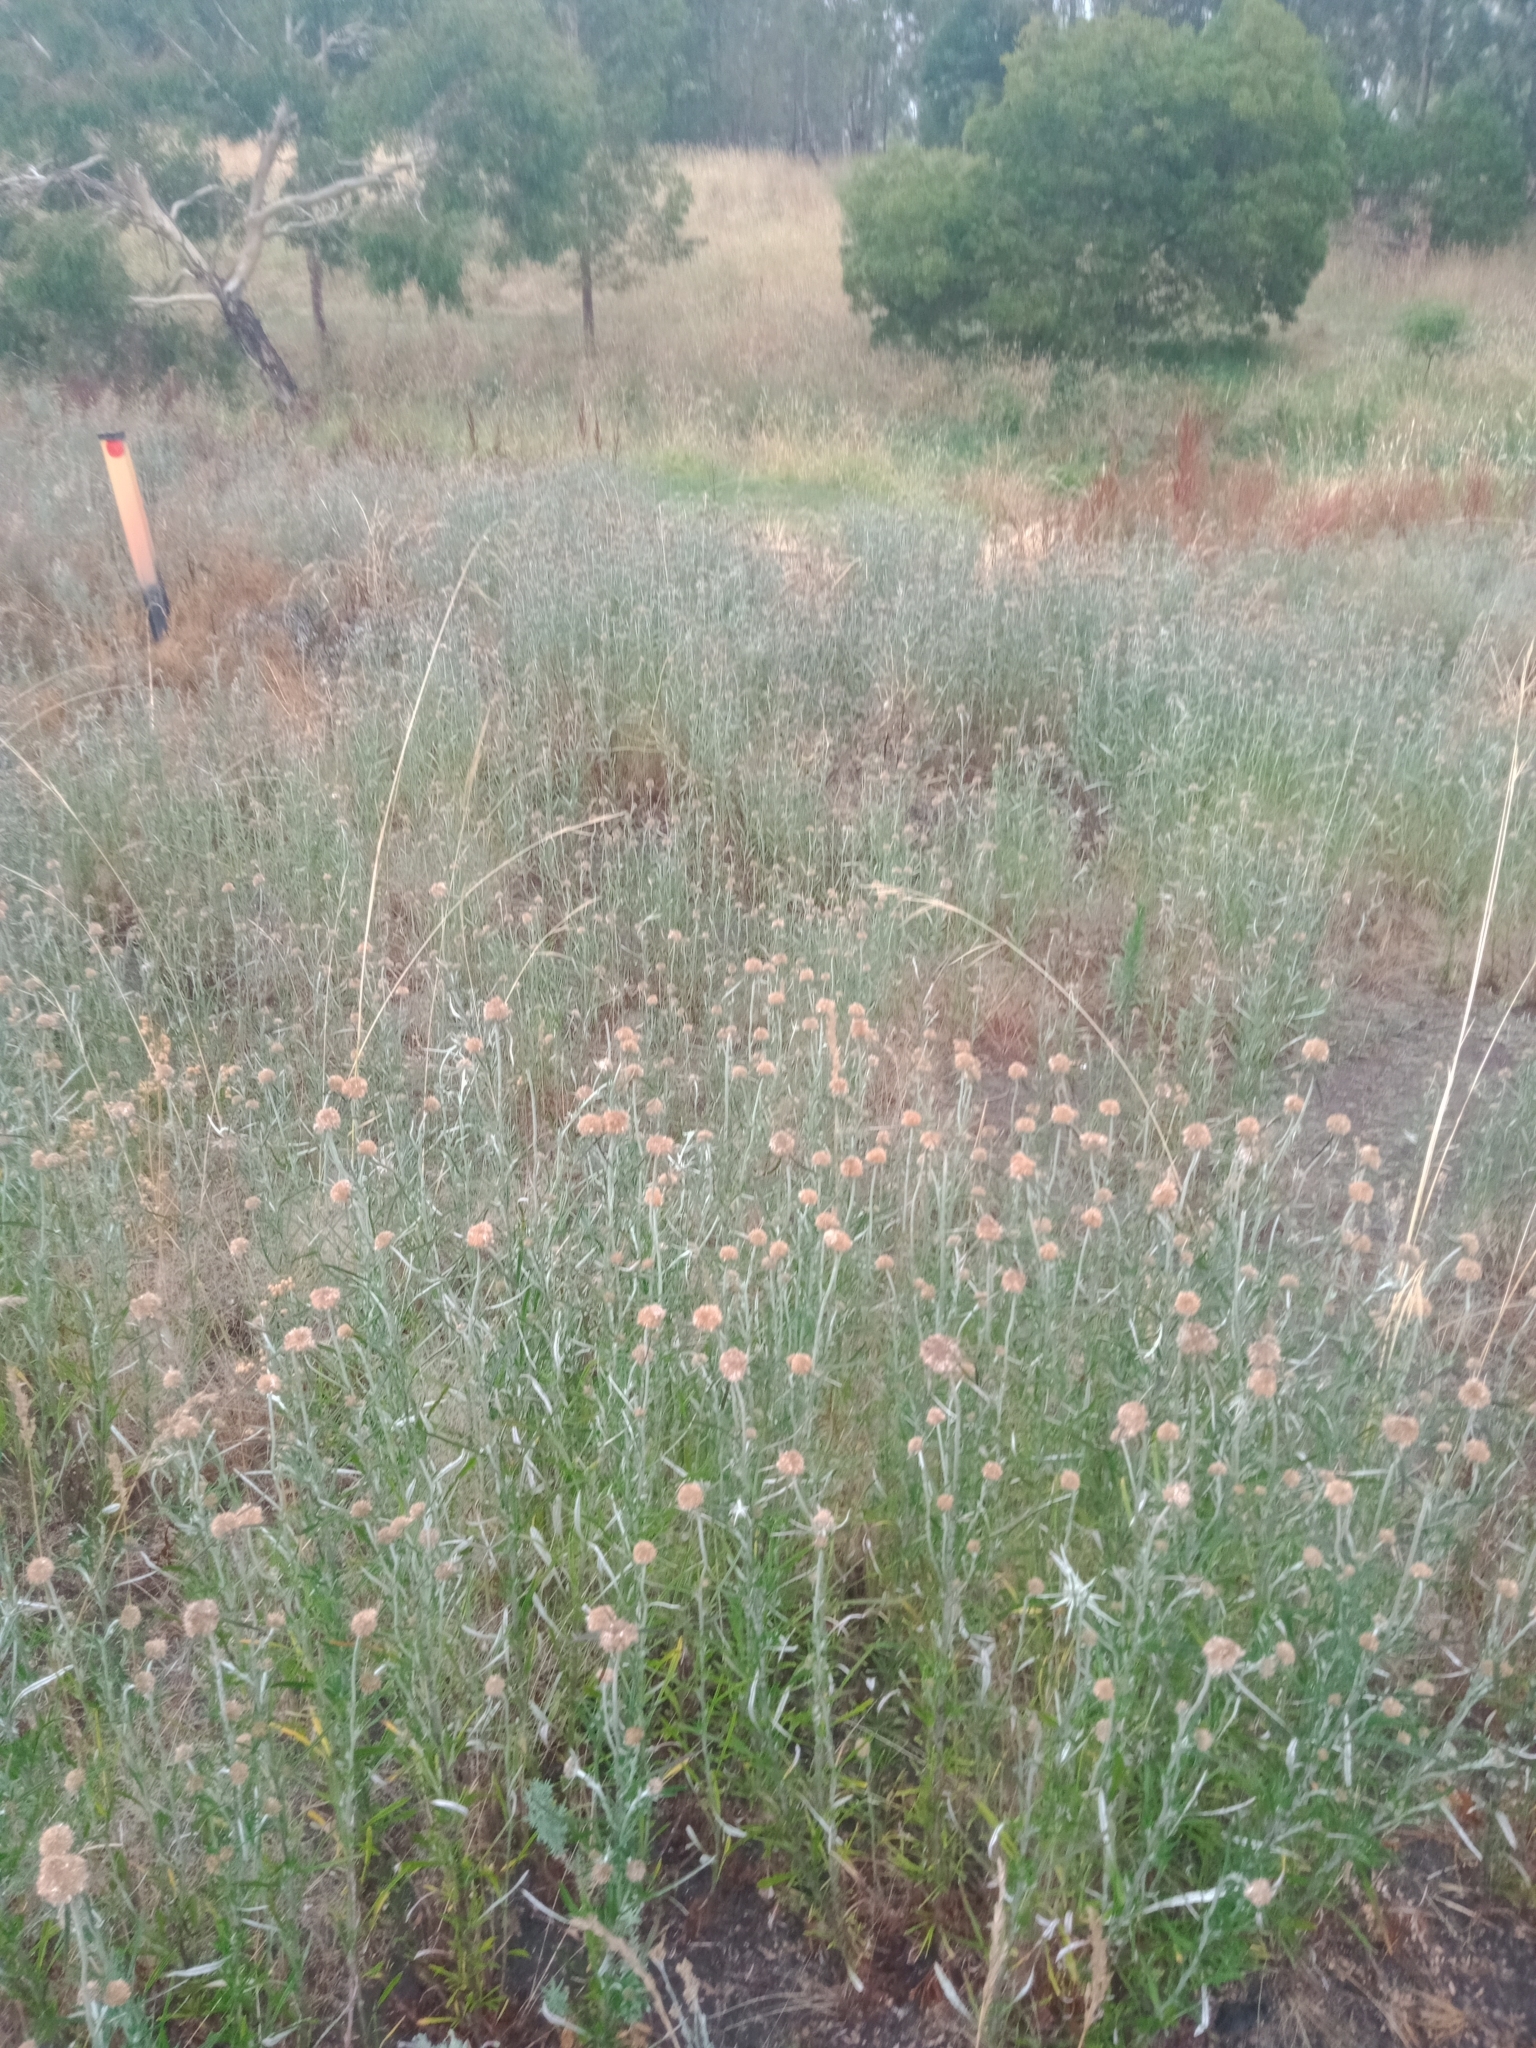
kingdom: Plantae
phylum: Tracheophyta
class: Magnoliopsida
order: Asterales
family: Asteraceae
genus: Euchiton
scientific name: Euchiton sphaericus
